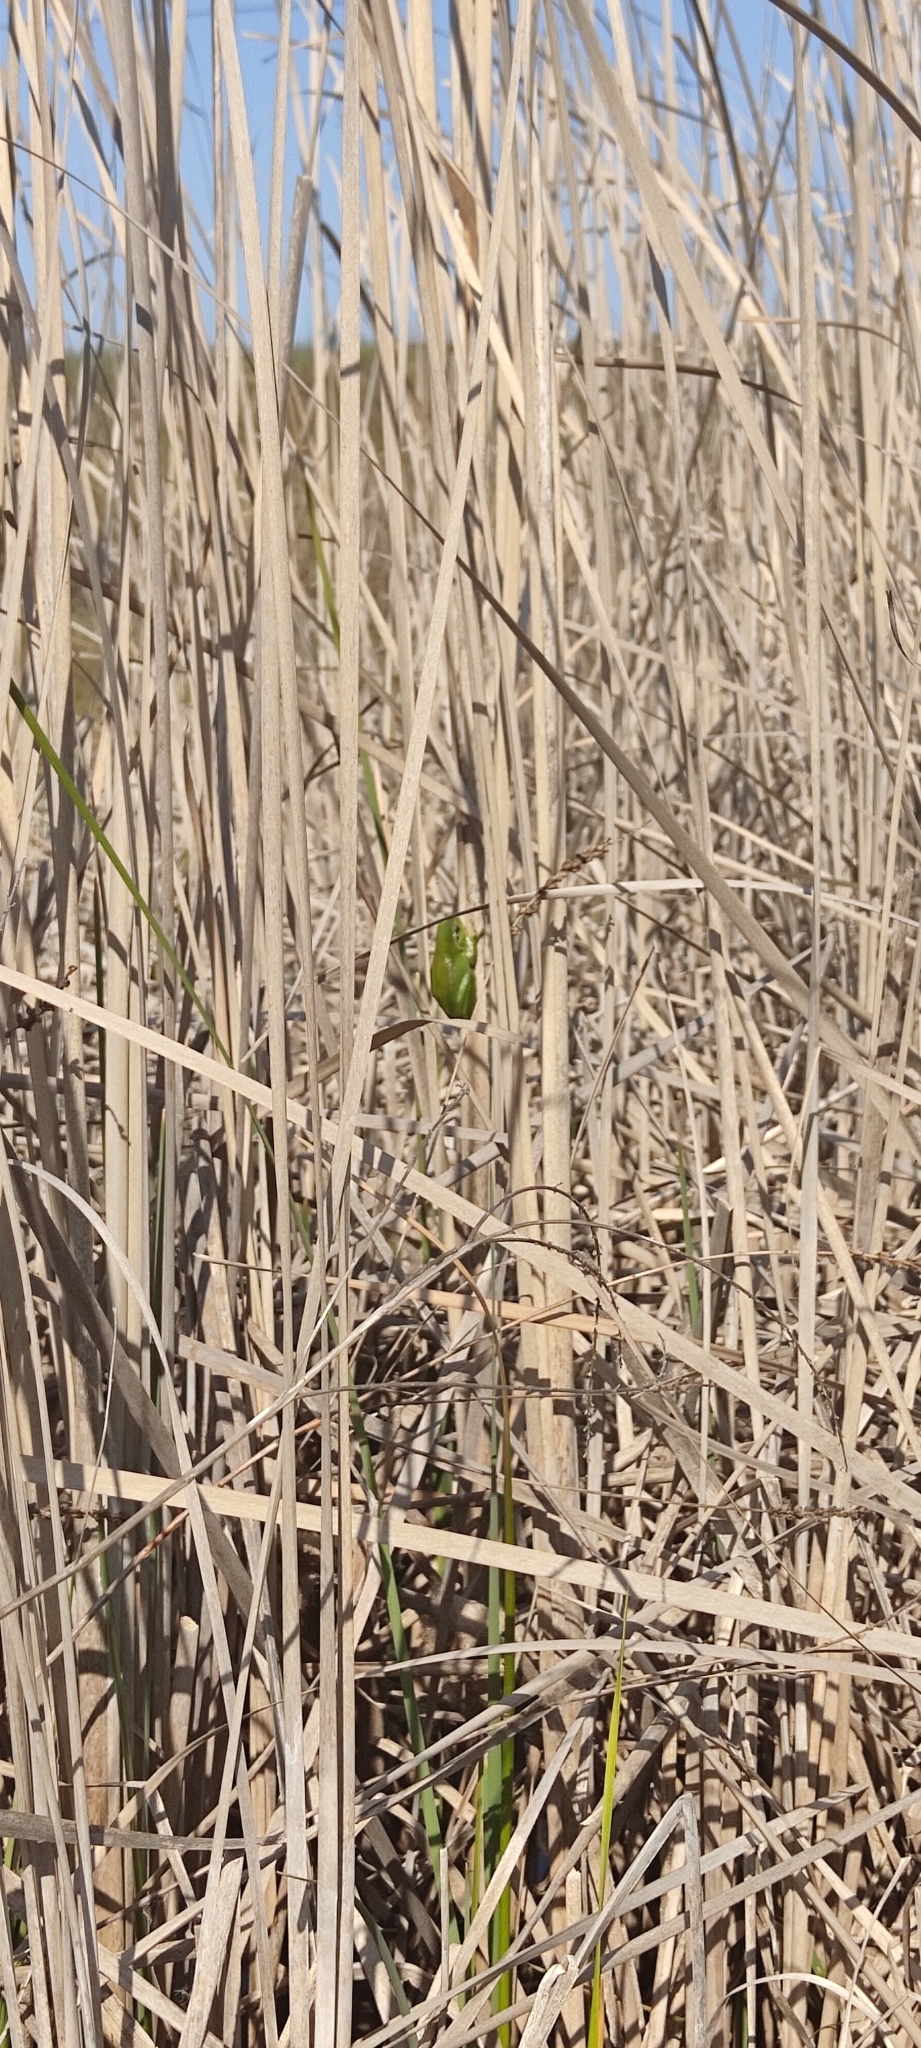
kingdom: Animalia
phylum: Chordata
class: Amphibia
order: Anura
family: Hylidae
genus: Hyla
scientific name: Hyla meridionalis
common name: Stripeless tree frog
